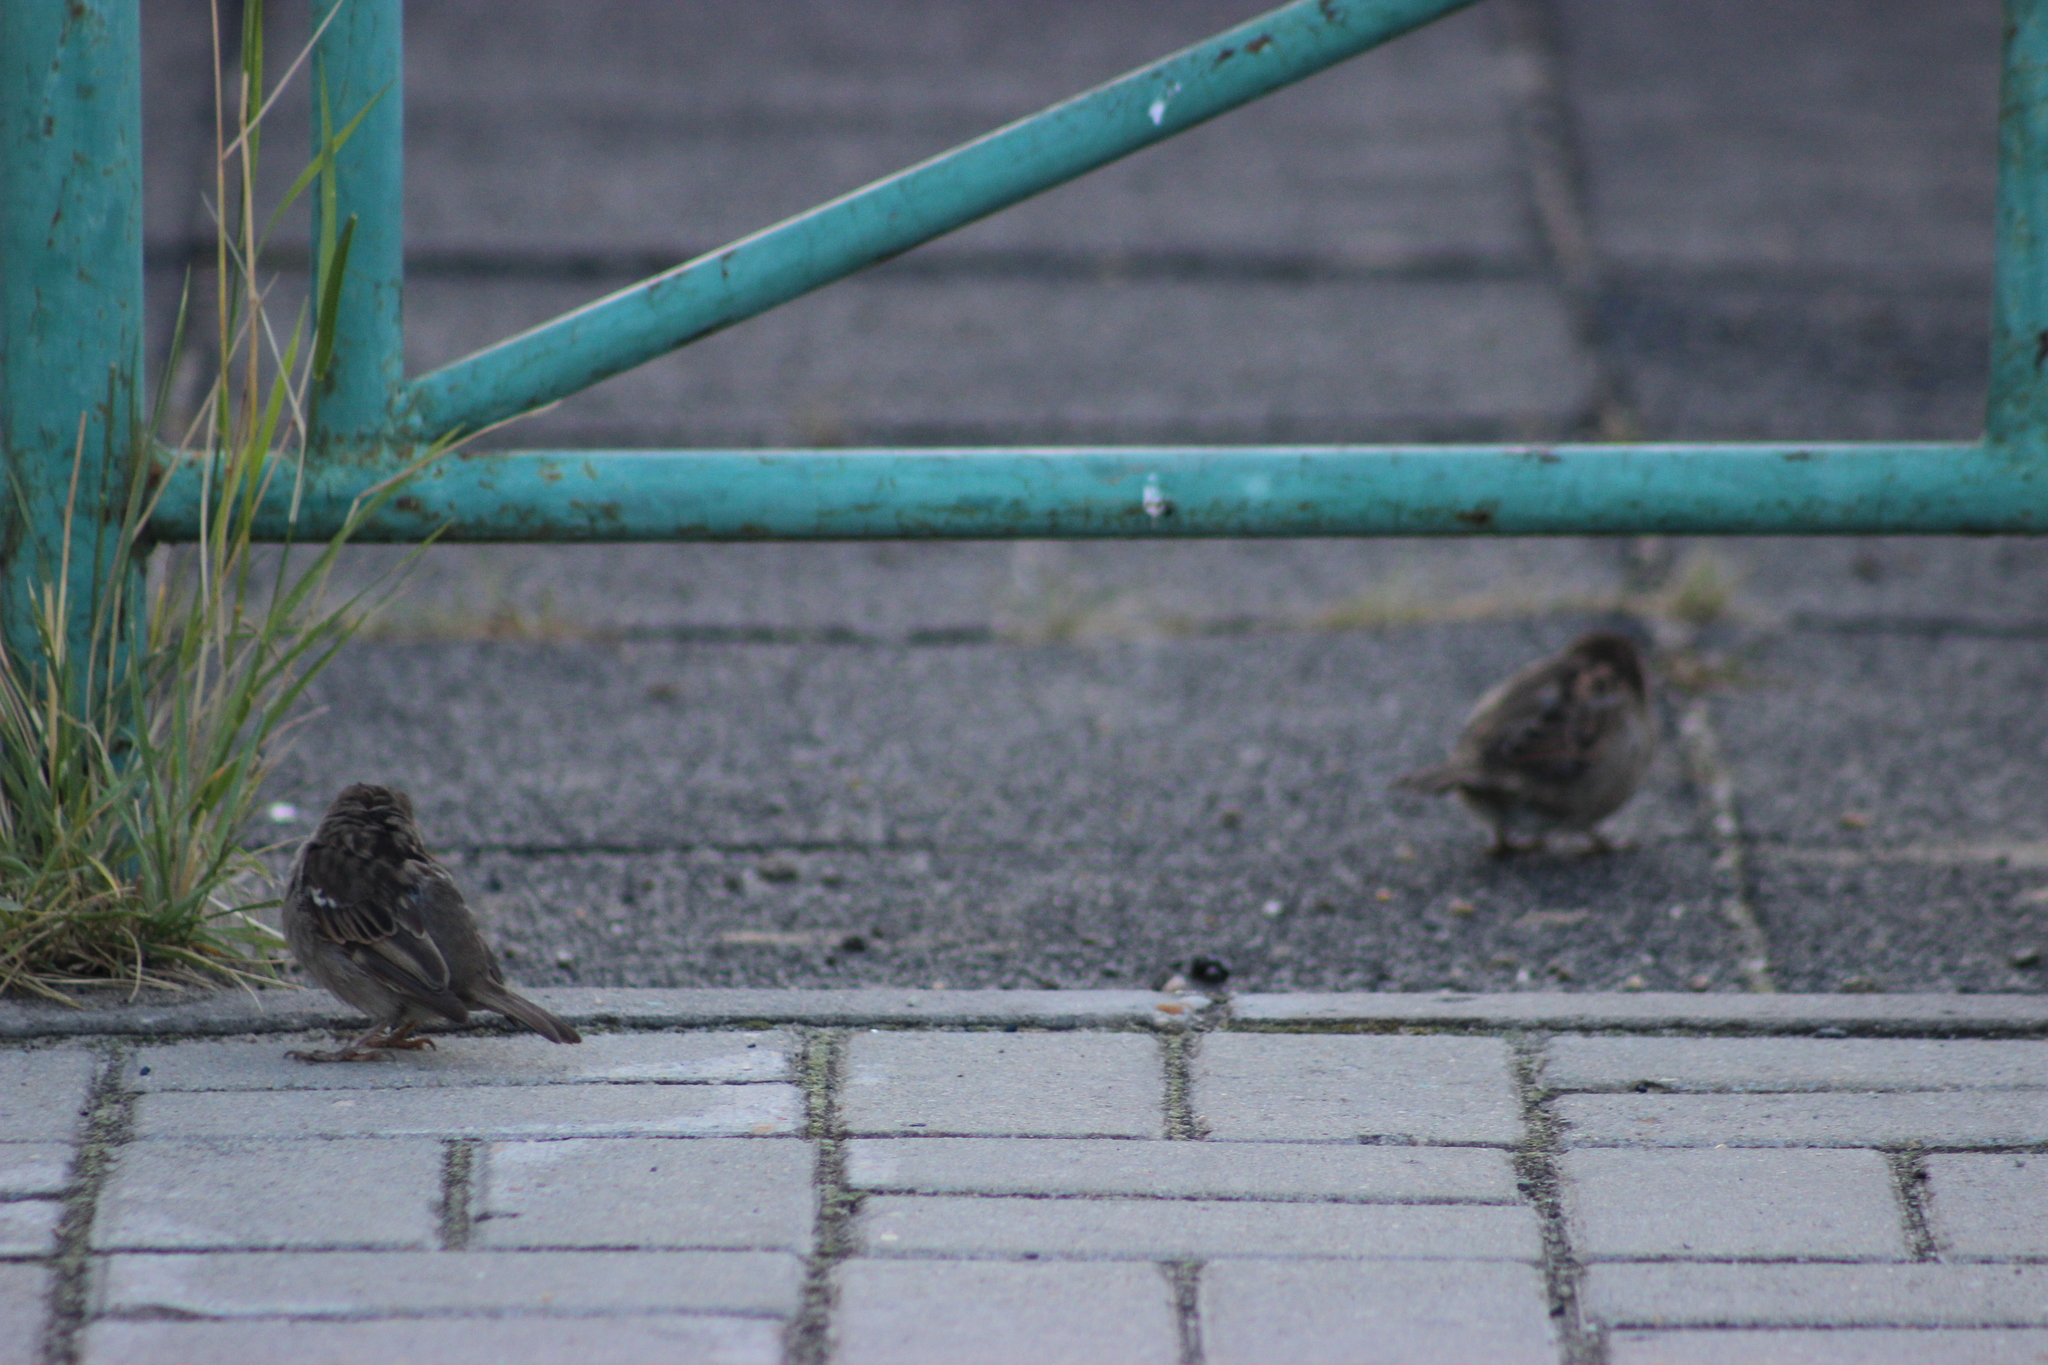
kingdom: Animalia
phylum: Chordata
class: Aves
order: Passeriformes
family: Passeridae
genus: Passer
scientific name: Passer domesticus
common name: House sparrow
